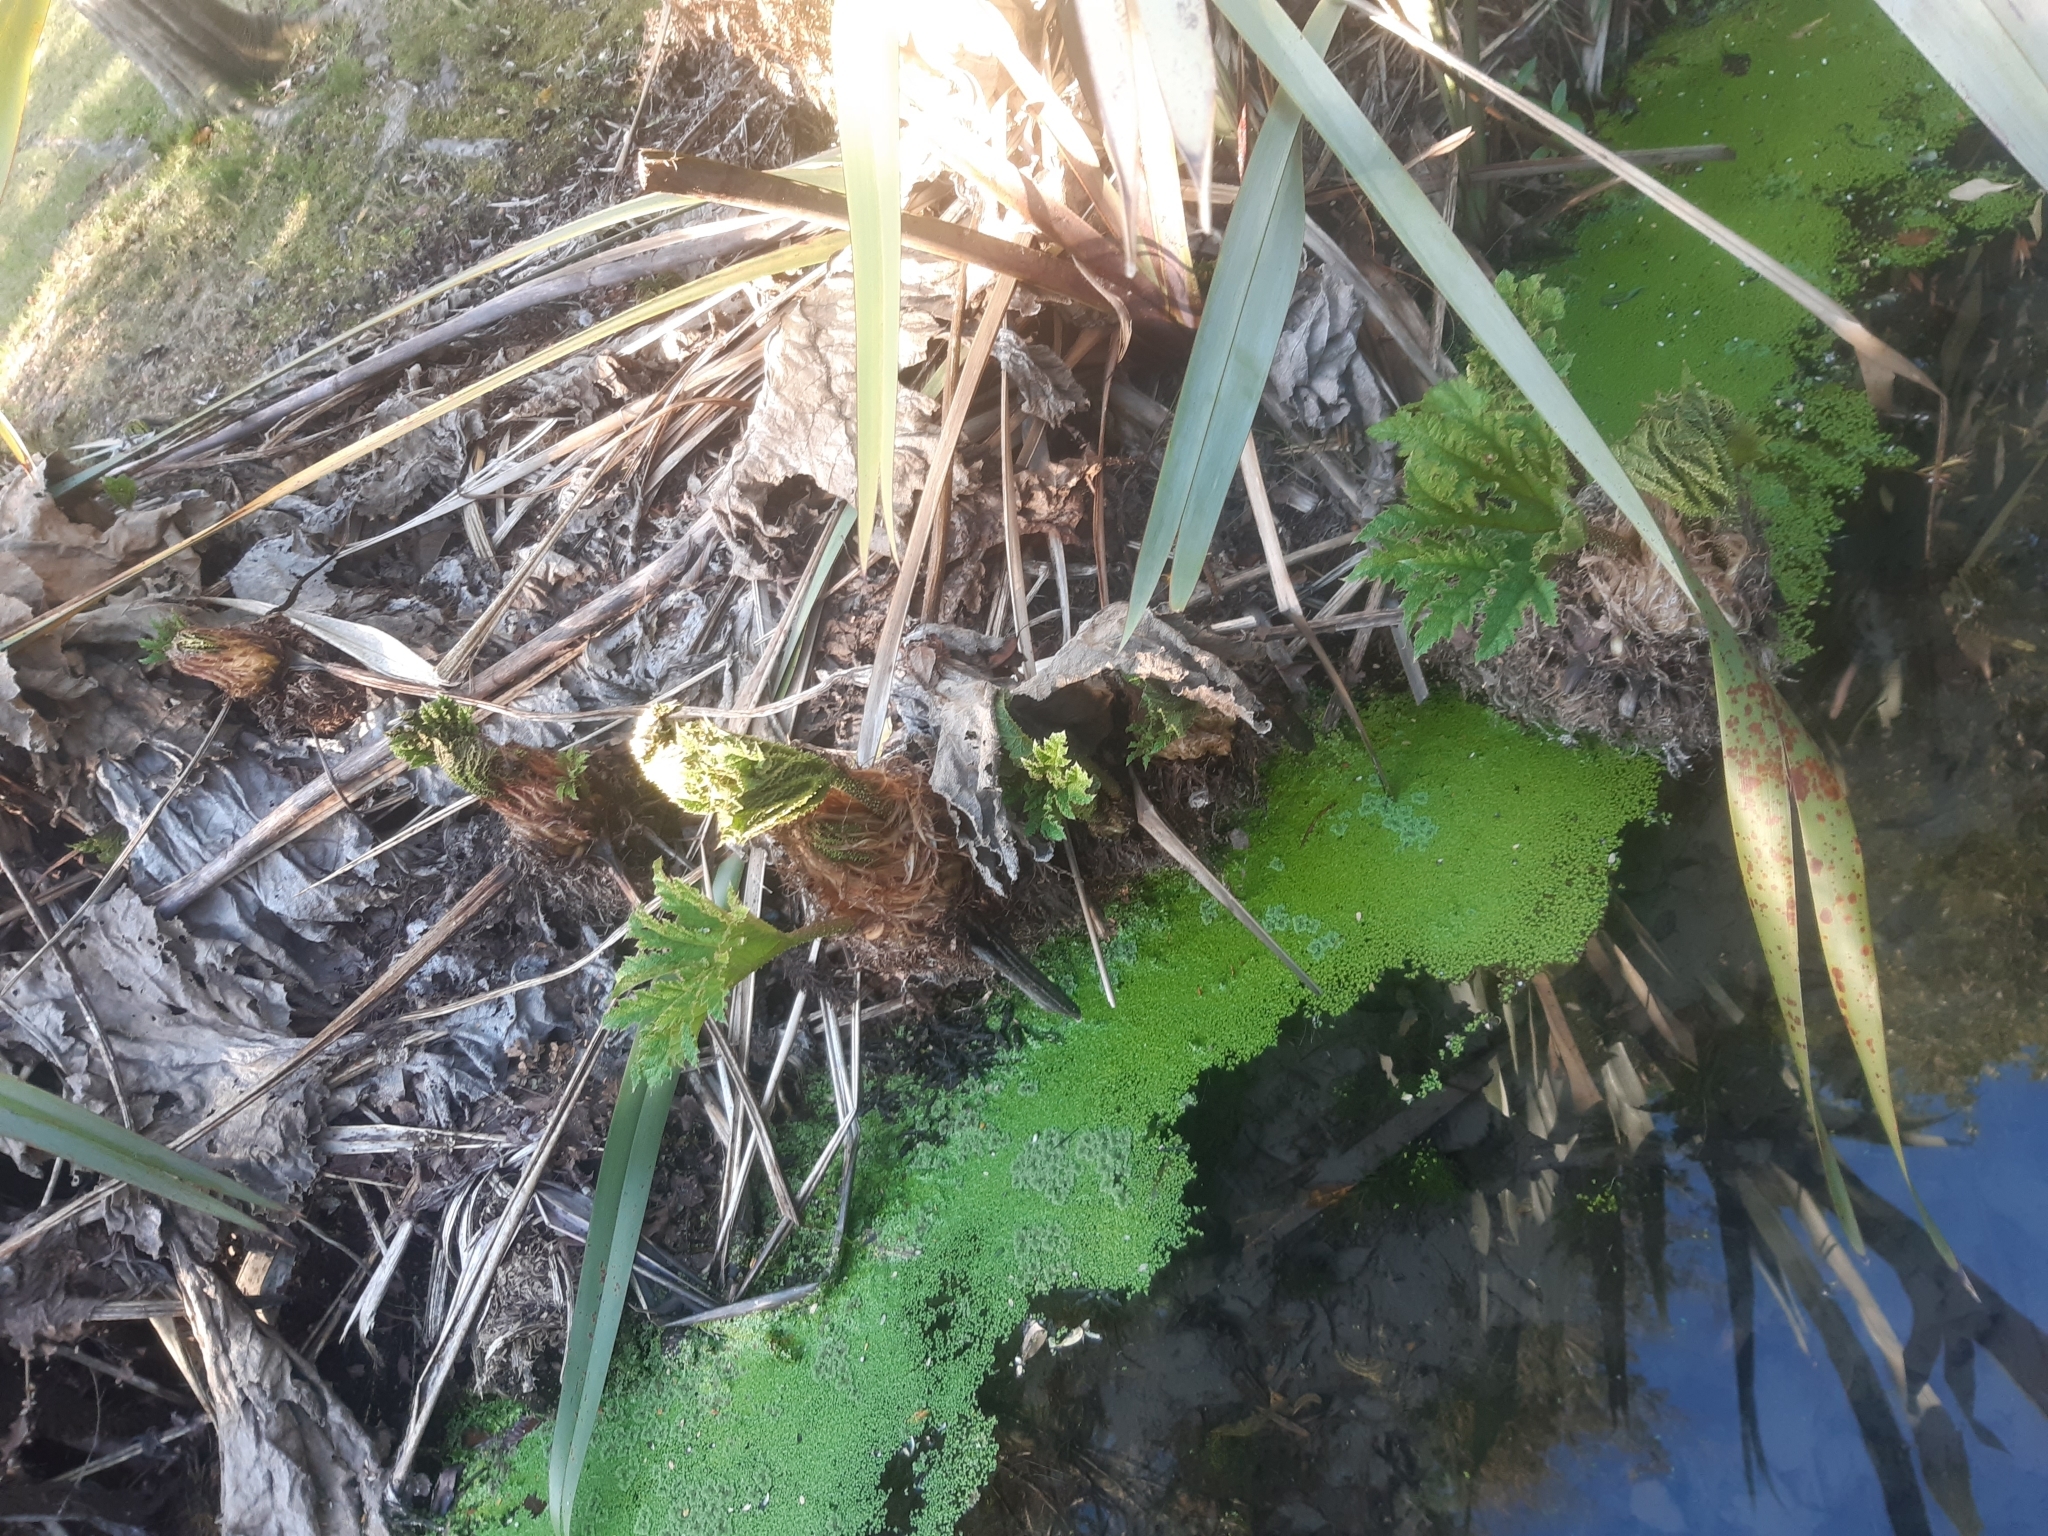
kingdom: Plantae
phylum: Tracheophyta
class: Magnoliopsida
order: Gunnerales
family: Gunneraceae
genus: Gunnera
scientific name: Gunnera tinctoria
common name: Giant-rhubarb
